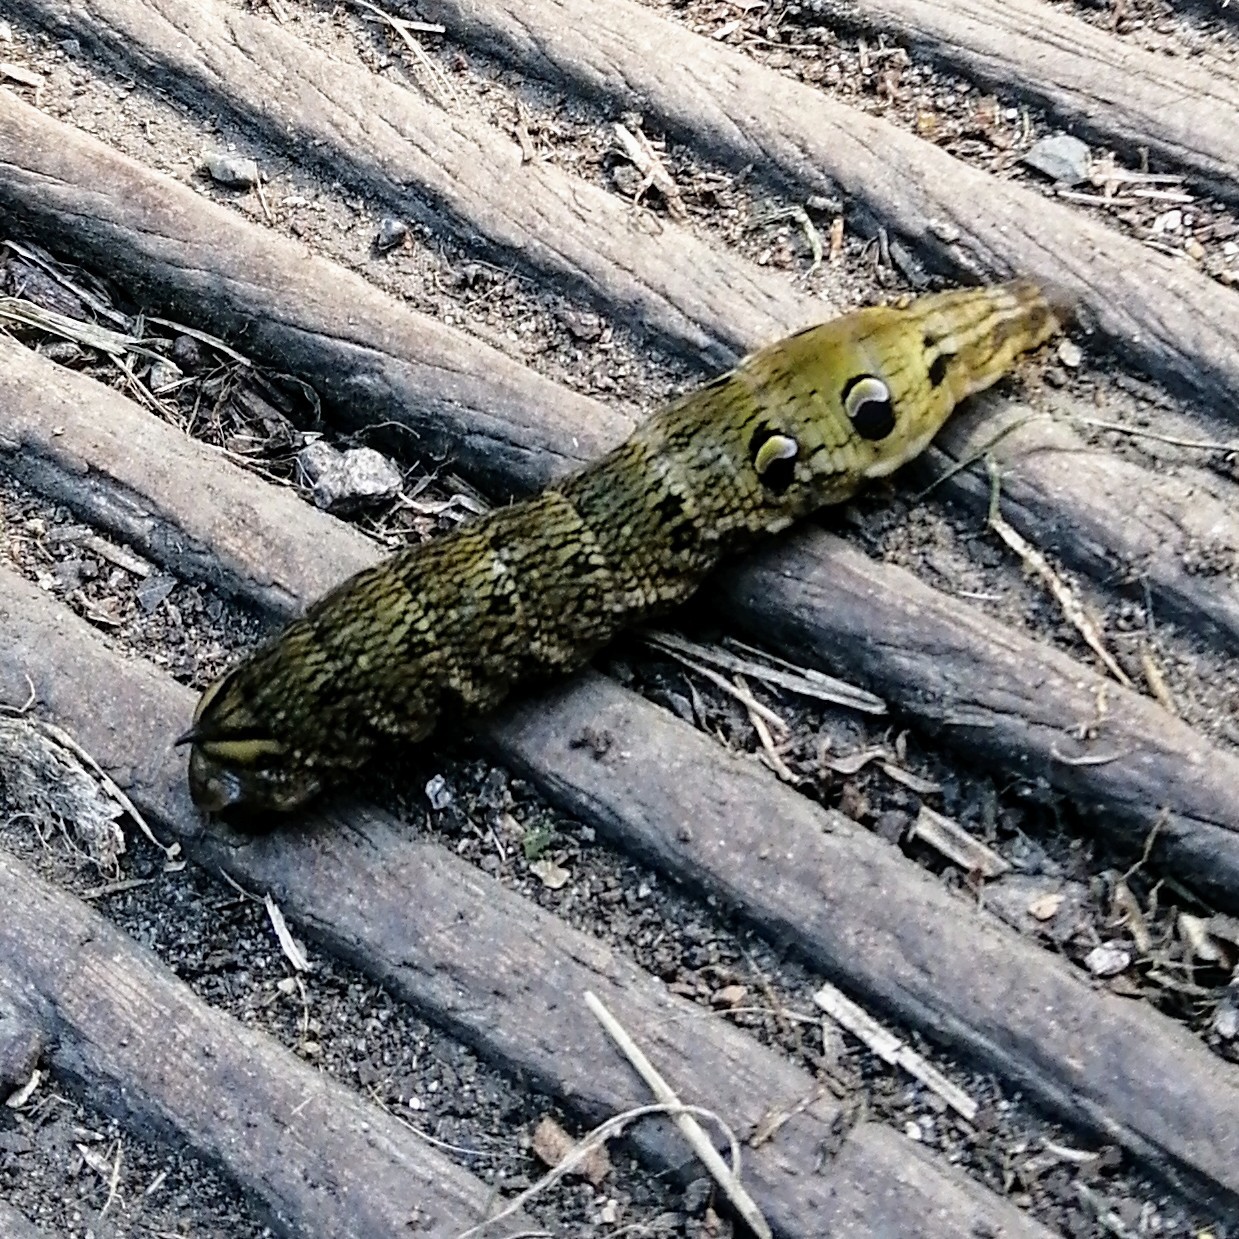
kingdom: Animalia
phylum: Arthropoda
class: Insecta
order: Lepidoptera
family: Sphingidae
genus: Deilephila
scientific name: Deilephila elpenor
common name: Elephant hawk-moth
